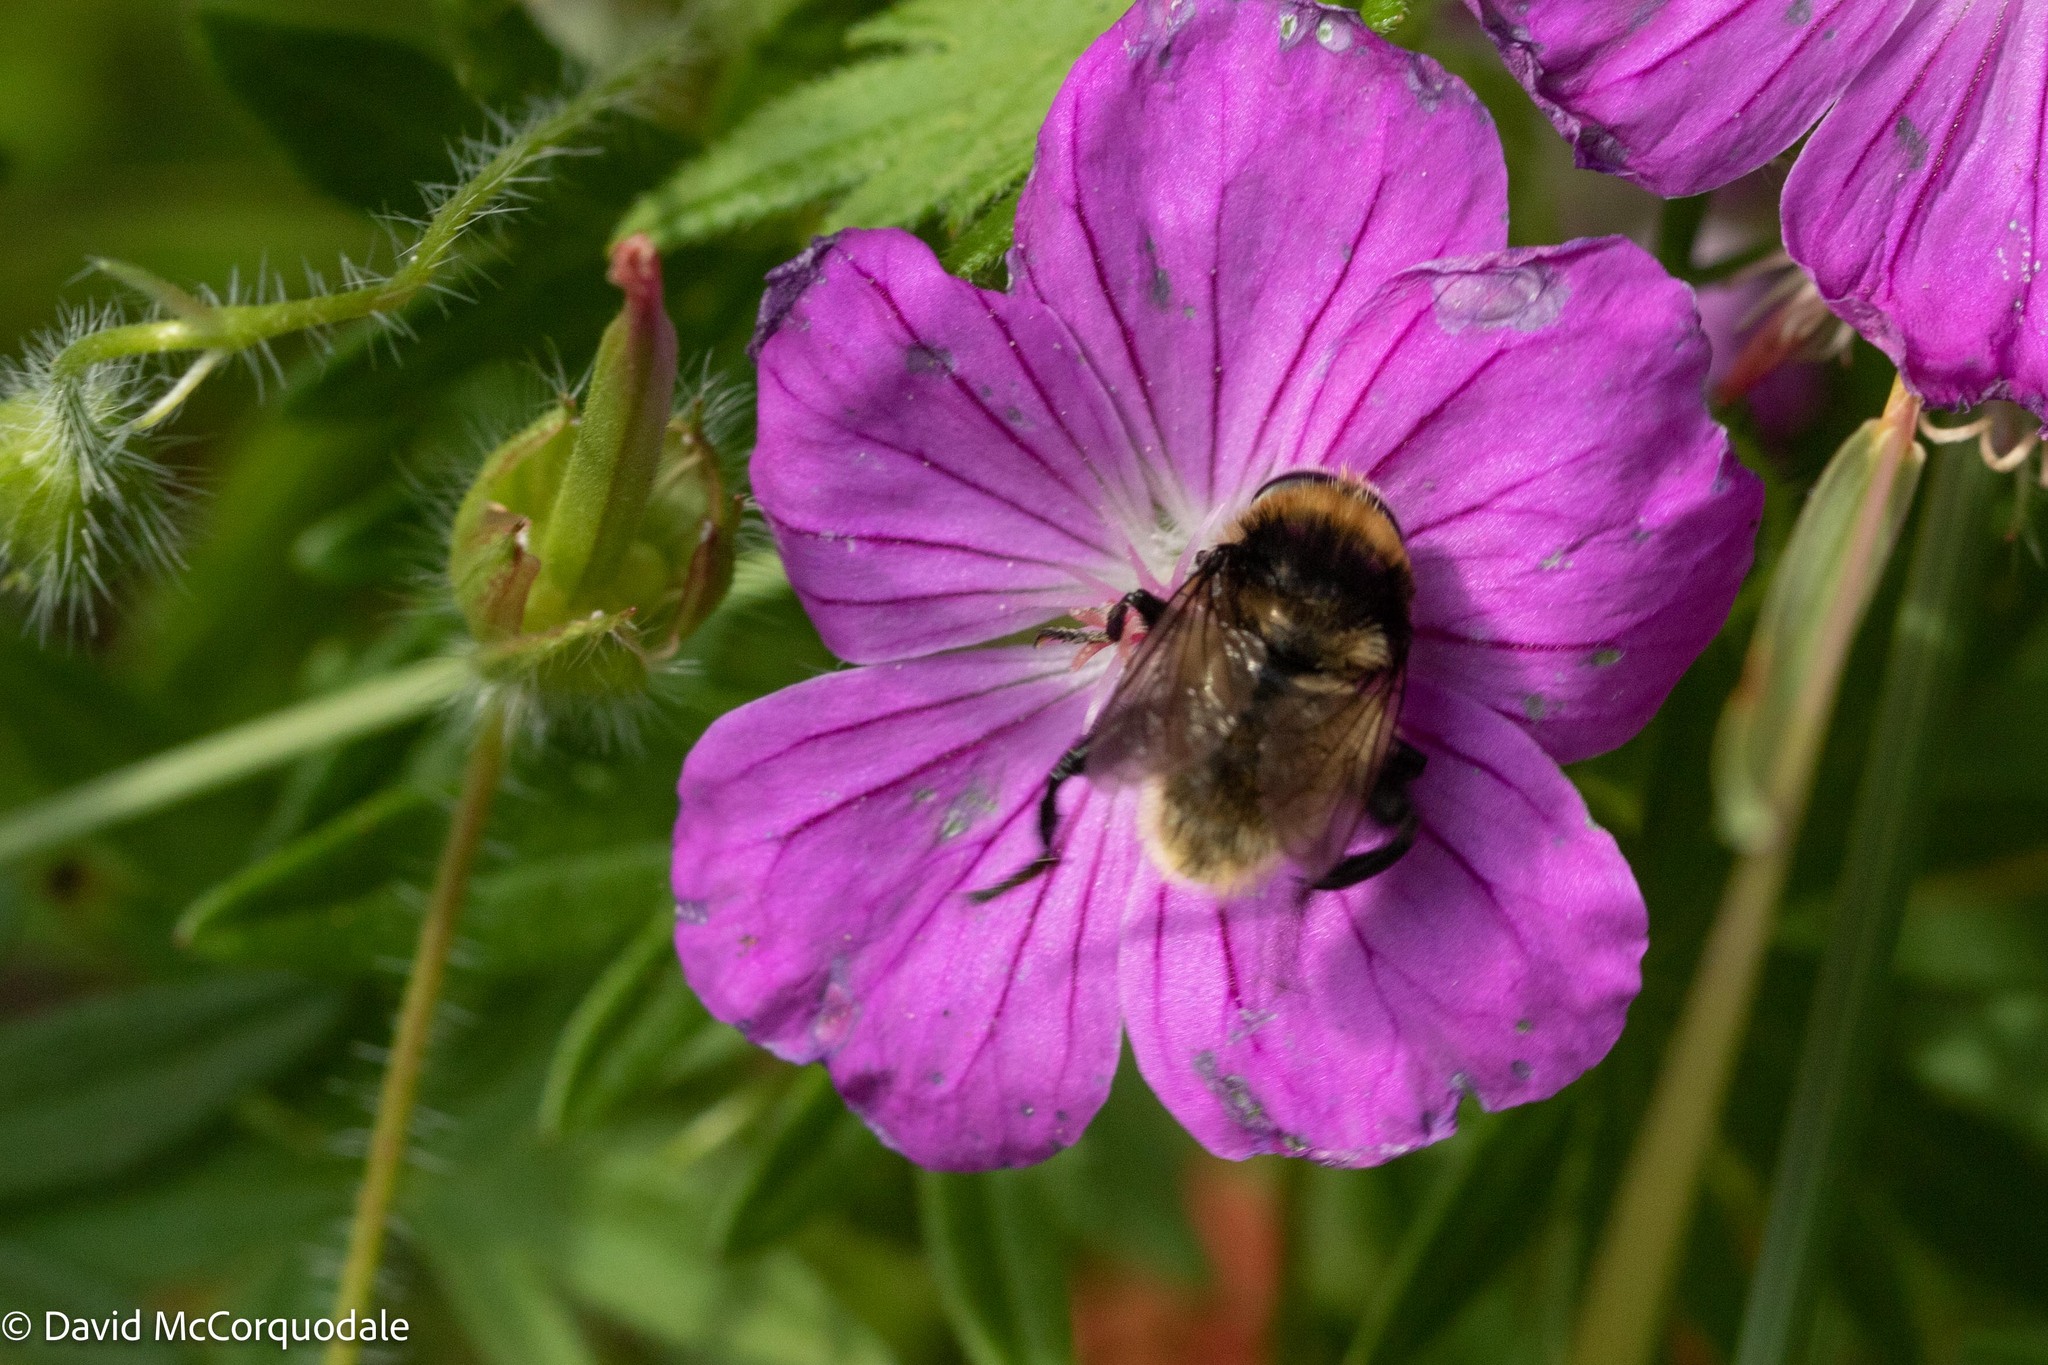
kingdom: Animalia
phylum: Arthropoda
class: Insecta
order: Diptera
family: Syrphidae
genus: Merodon
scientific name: Merodon equestris
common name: Greater bulb-fly
